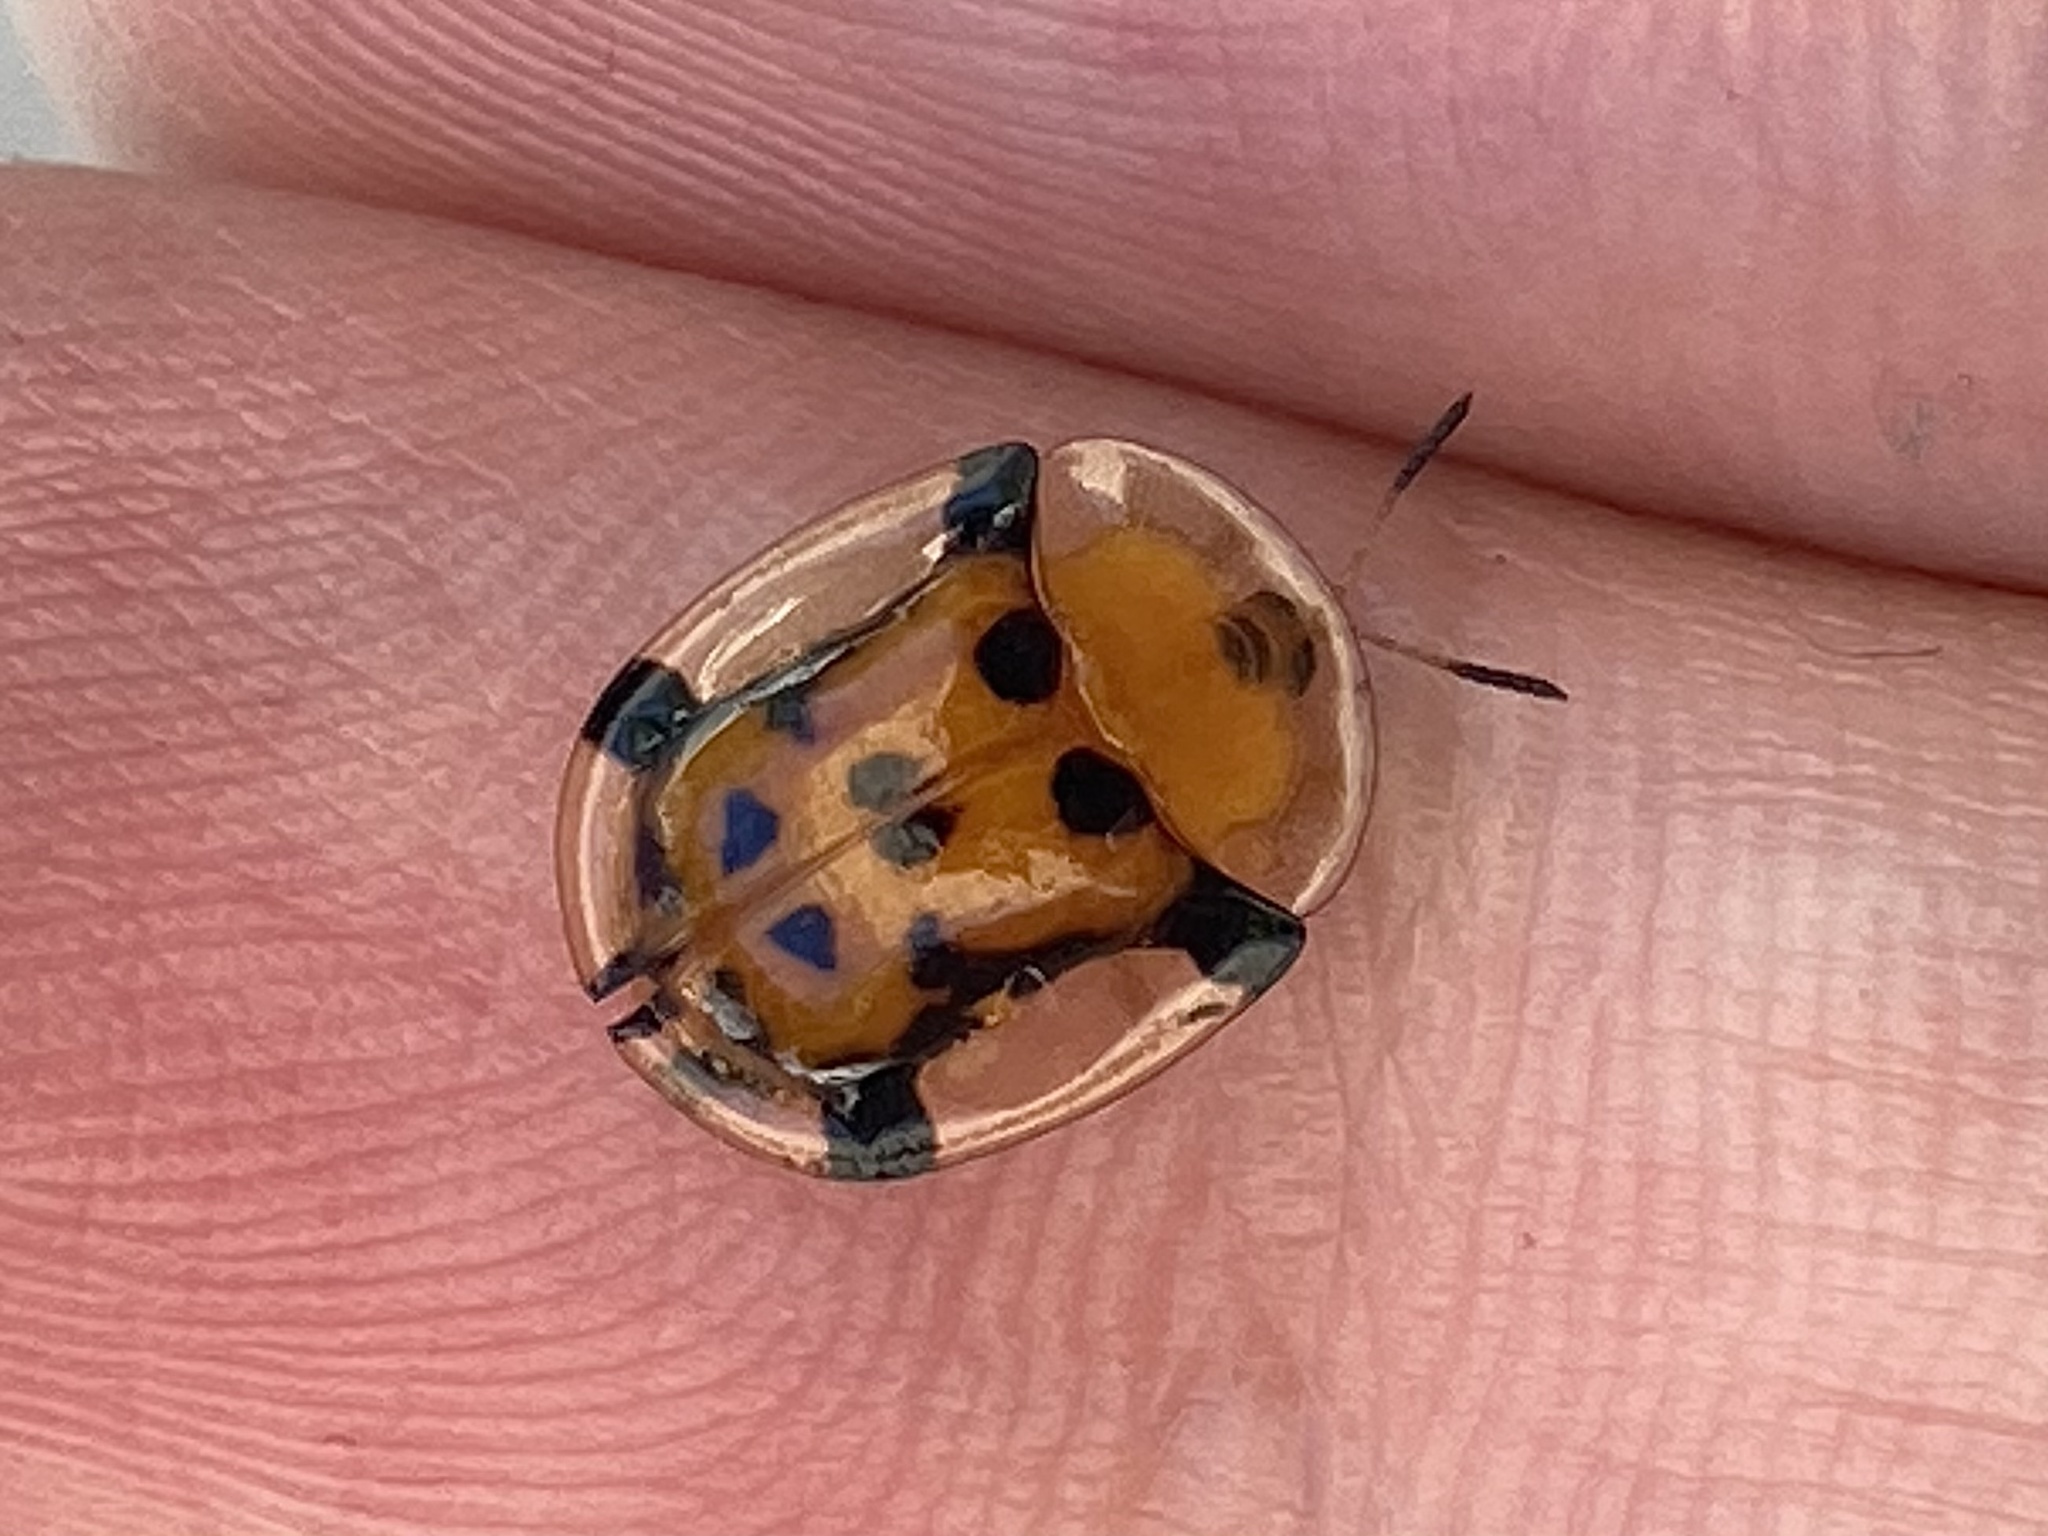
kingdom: Animalia
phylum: Arthropoda
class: Insecta
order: Coleoptera
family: Chrysomelidae
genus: Aspidimorpha
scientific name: Aspidimorpha westwoodii
